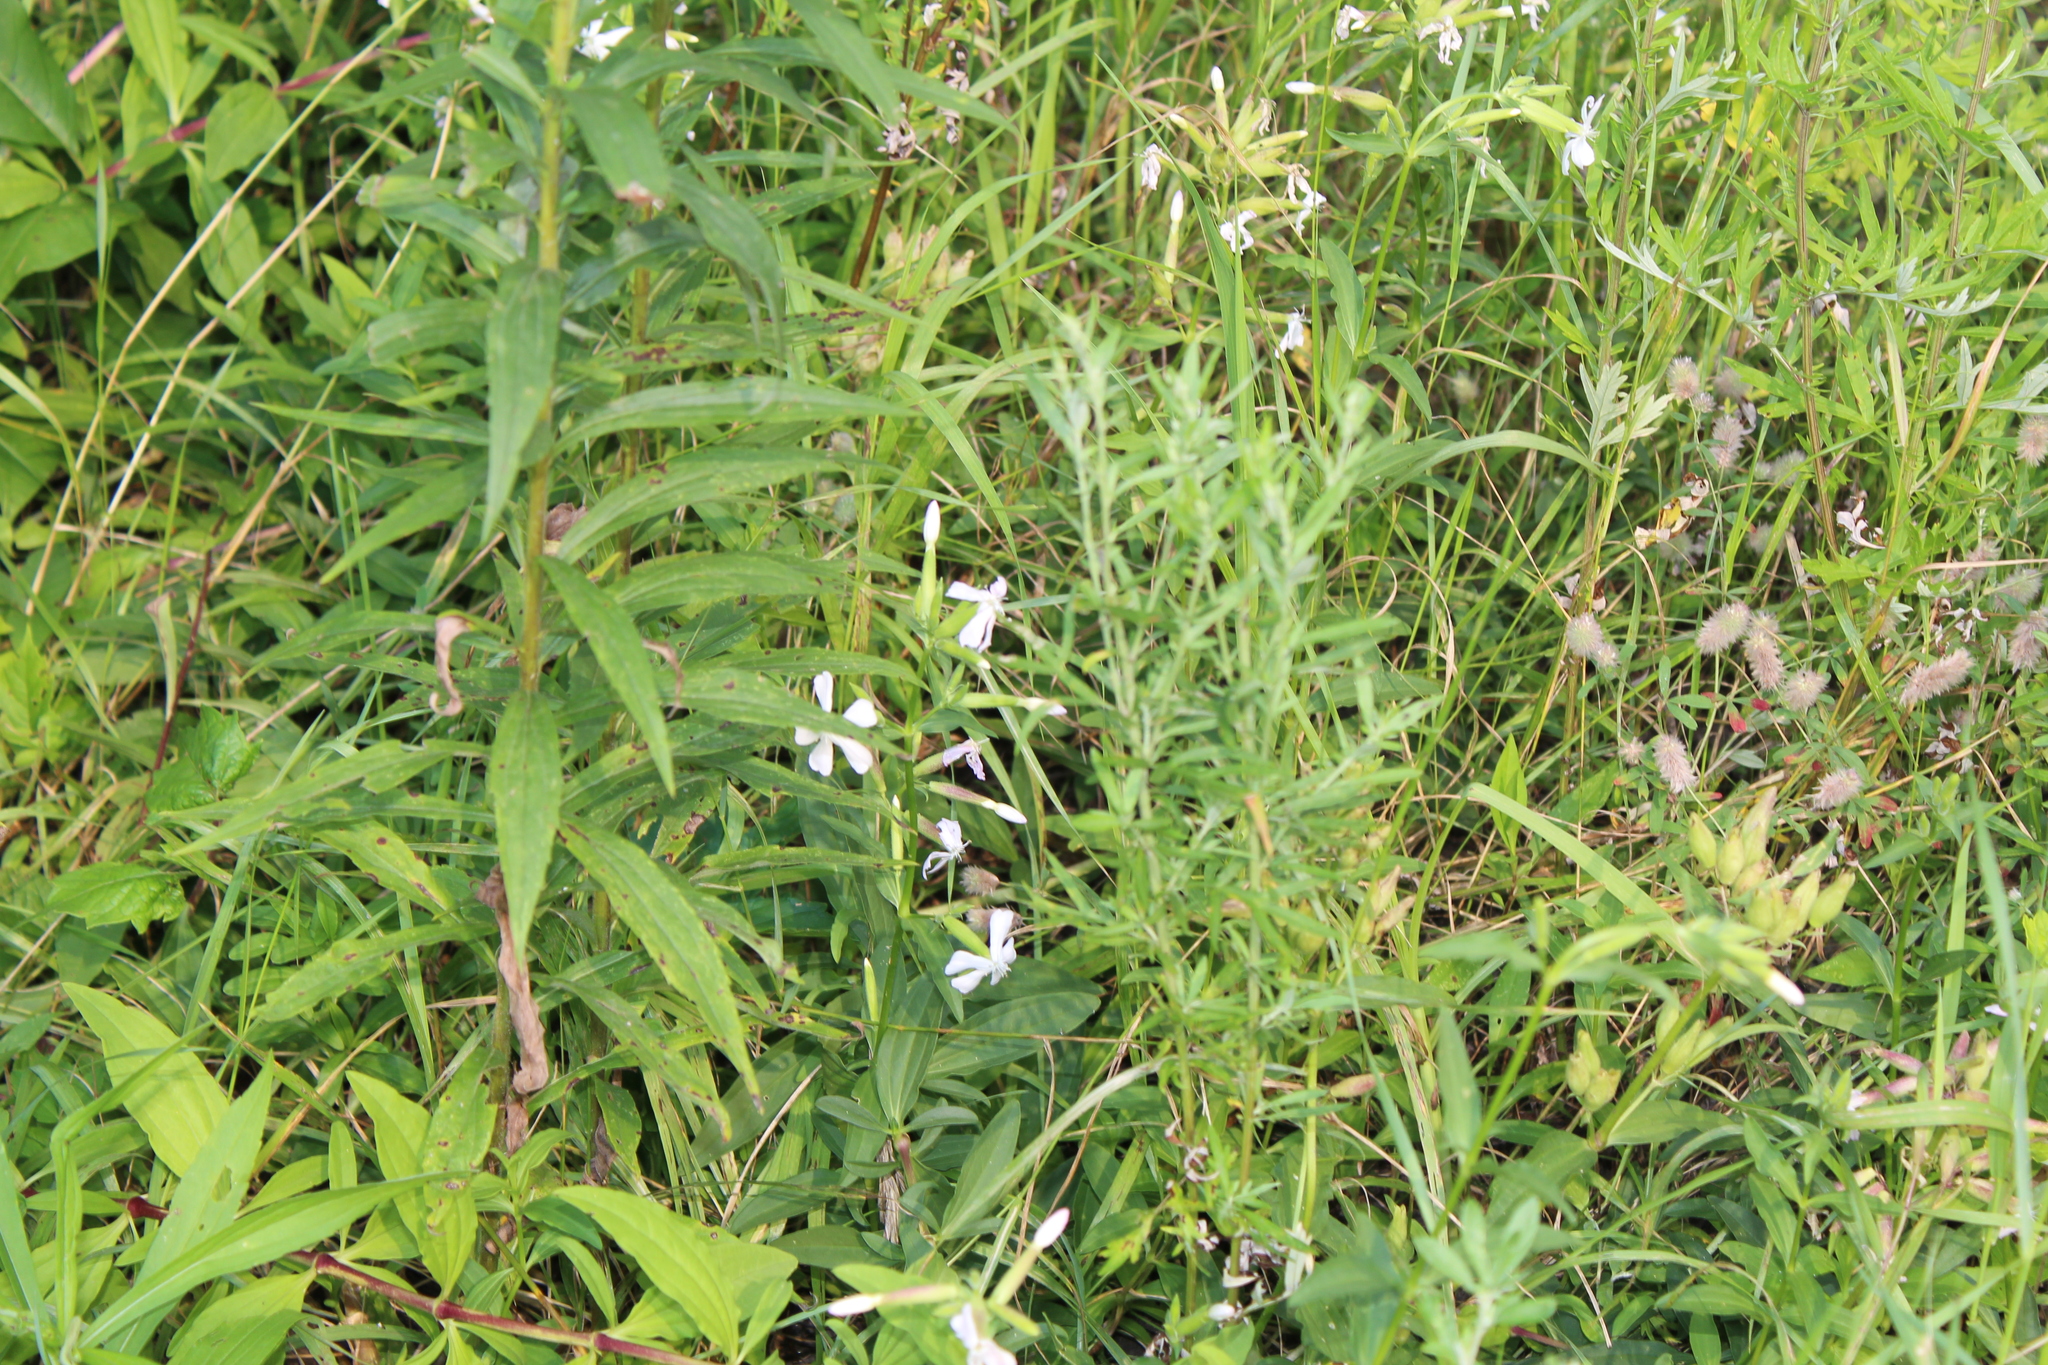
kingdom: Plantae
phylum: Tracheophyta
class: Magnoliopsida
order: Caryophyllales
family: Caryophyllaceae
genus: Saponaria
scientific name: Saponaria officinalis
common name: Soapwort
